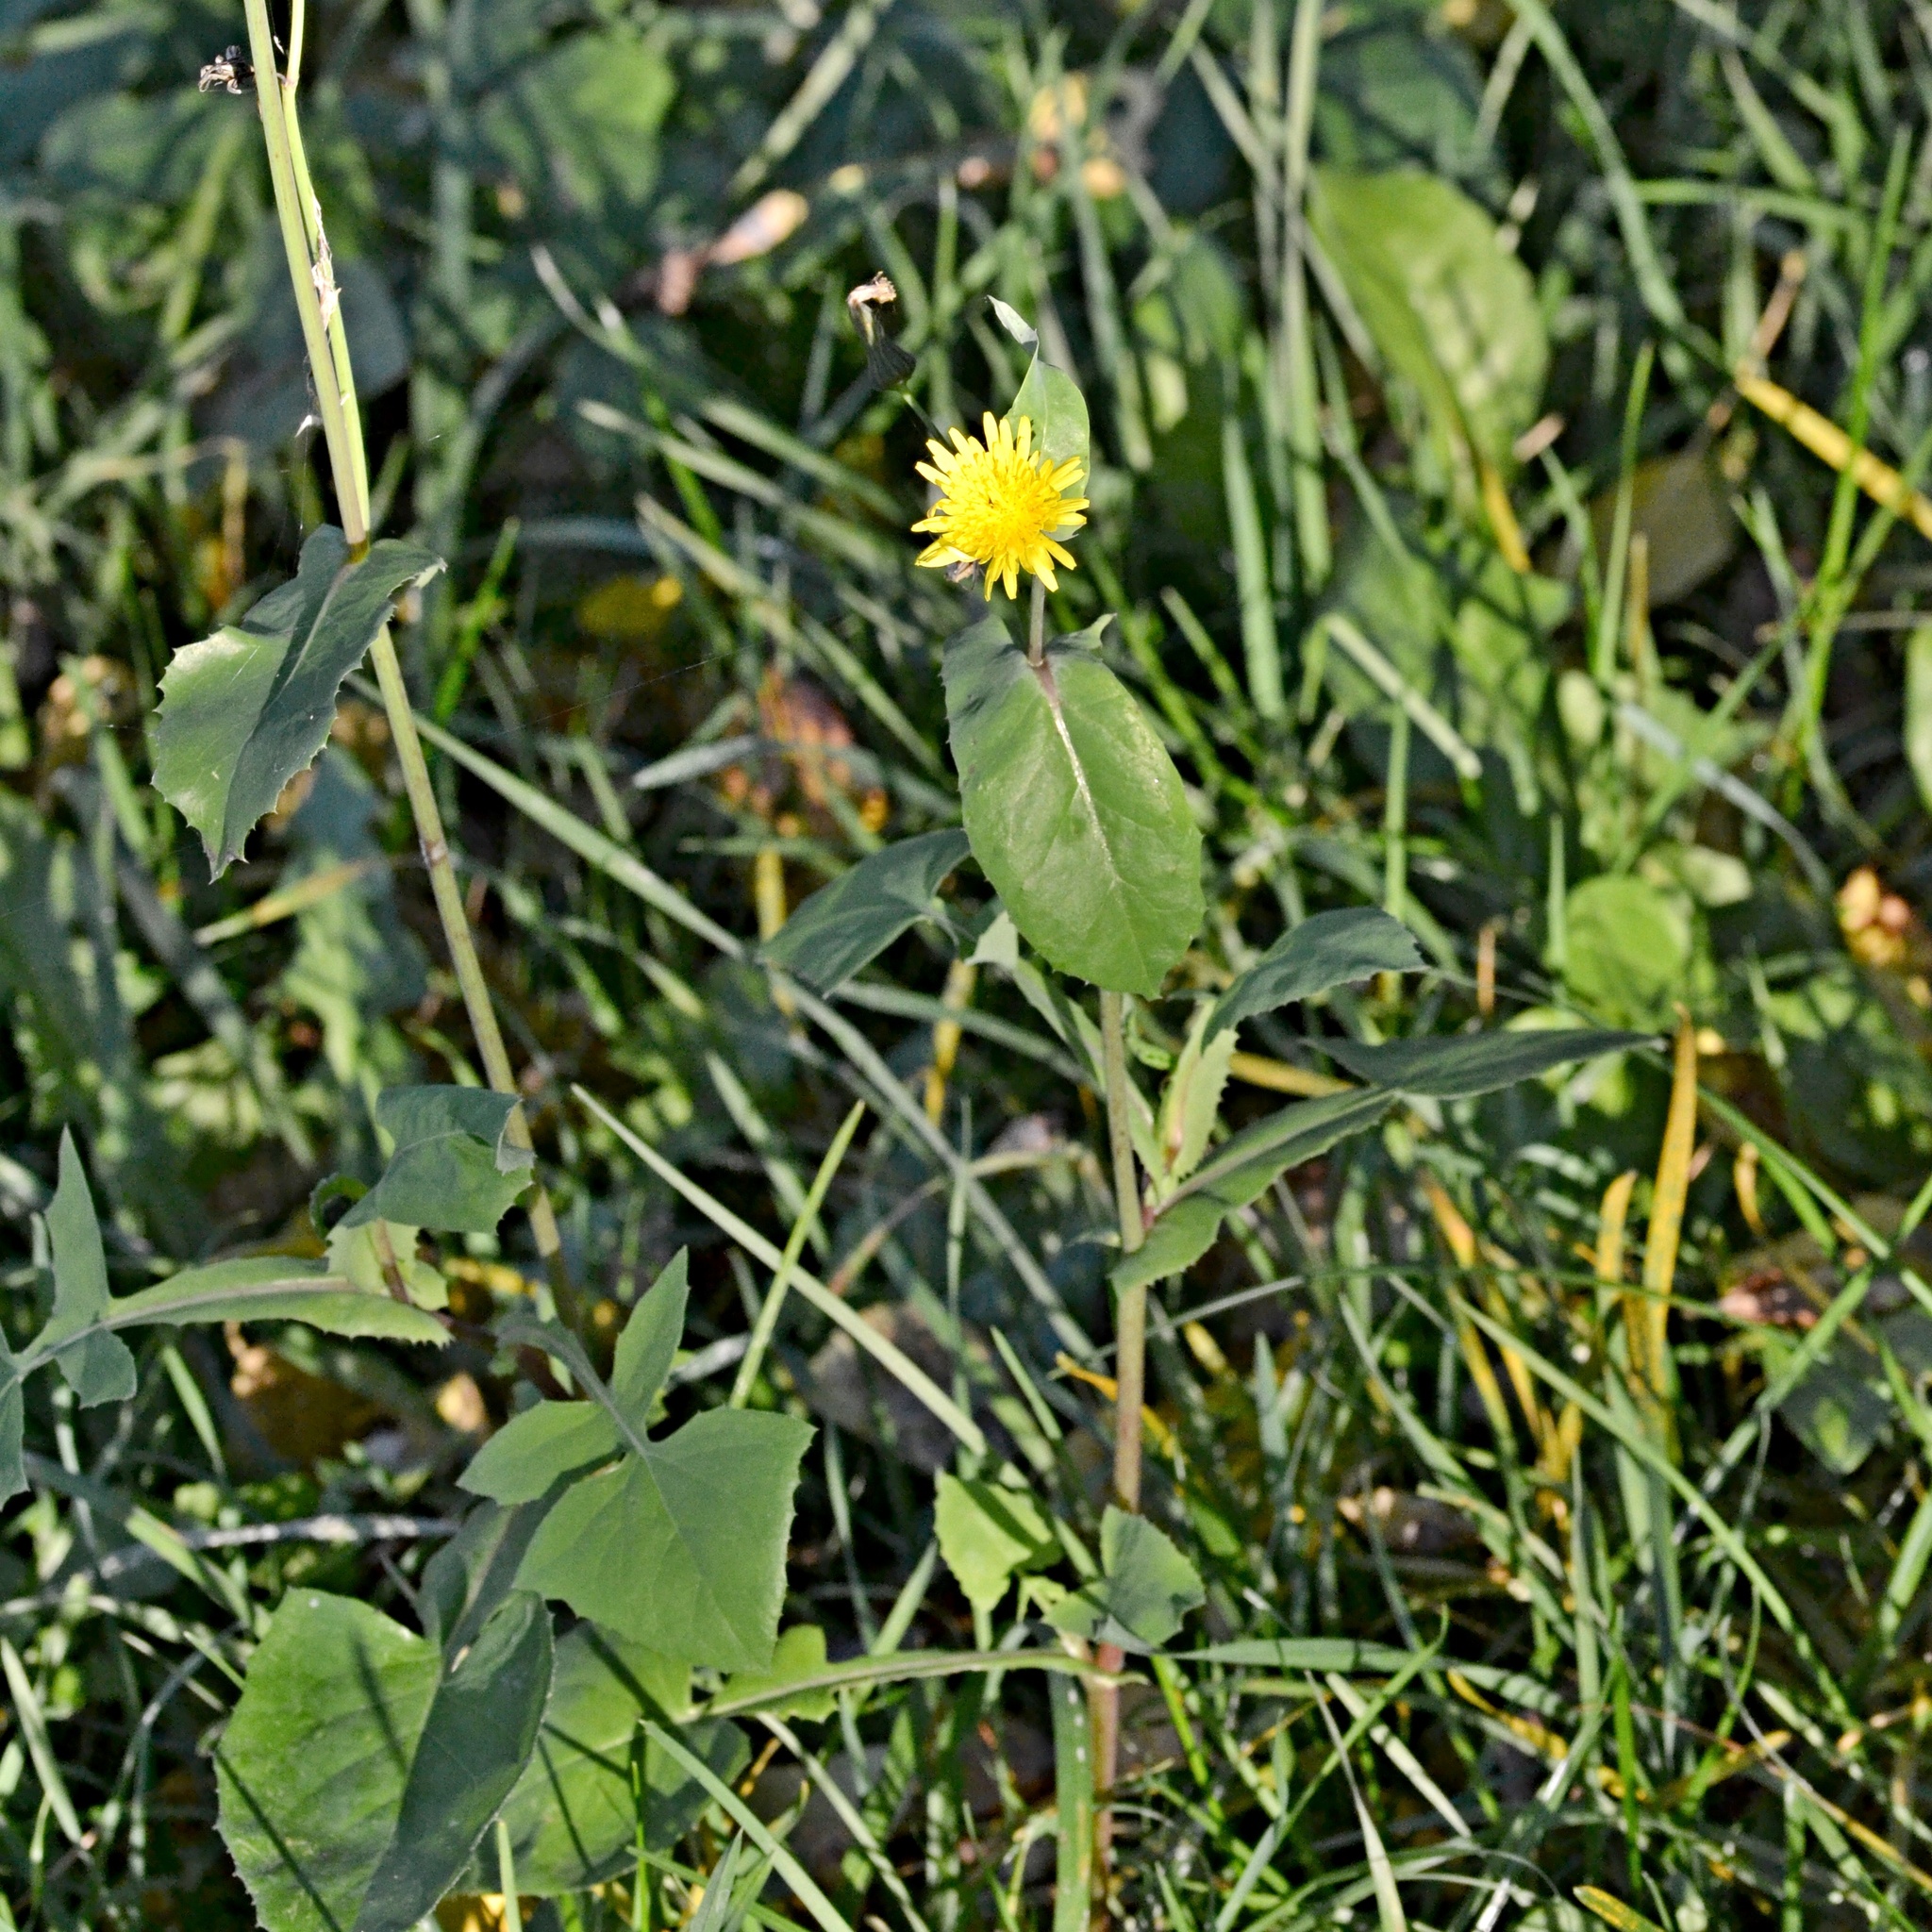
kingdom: Plantae
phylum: Tracheophyta
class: Magnoliopsida
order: Asterales
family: Asteraceae
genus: Sonchus
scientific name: Sonchus oleraceus
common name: Common sowthistle
